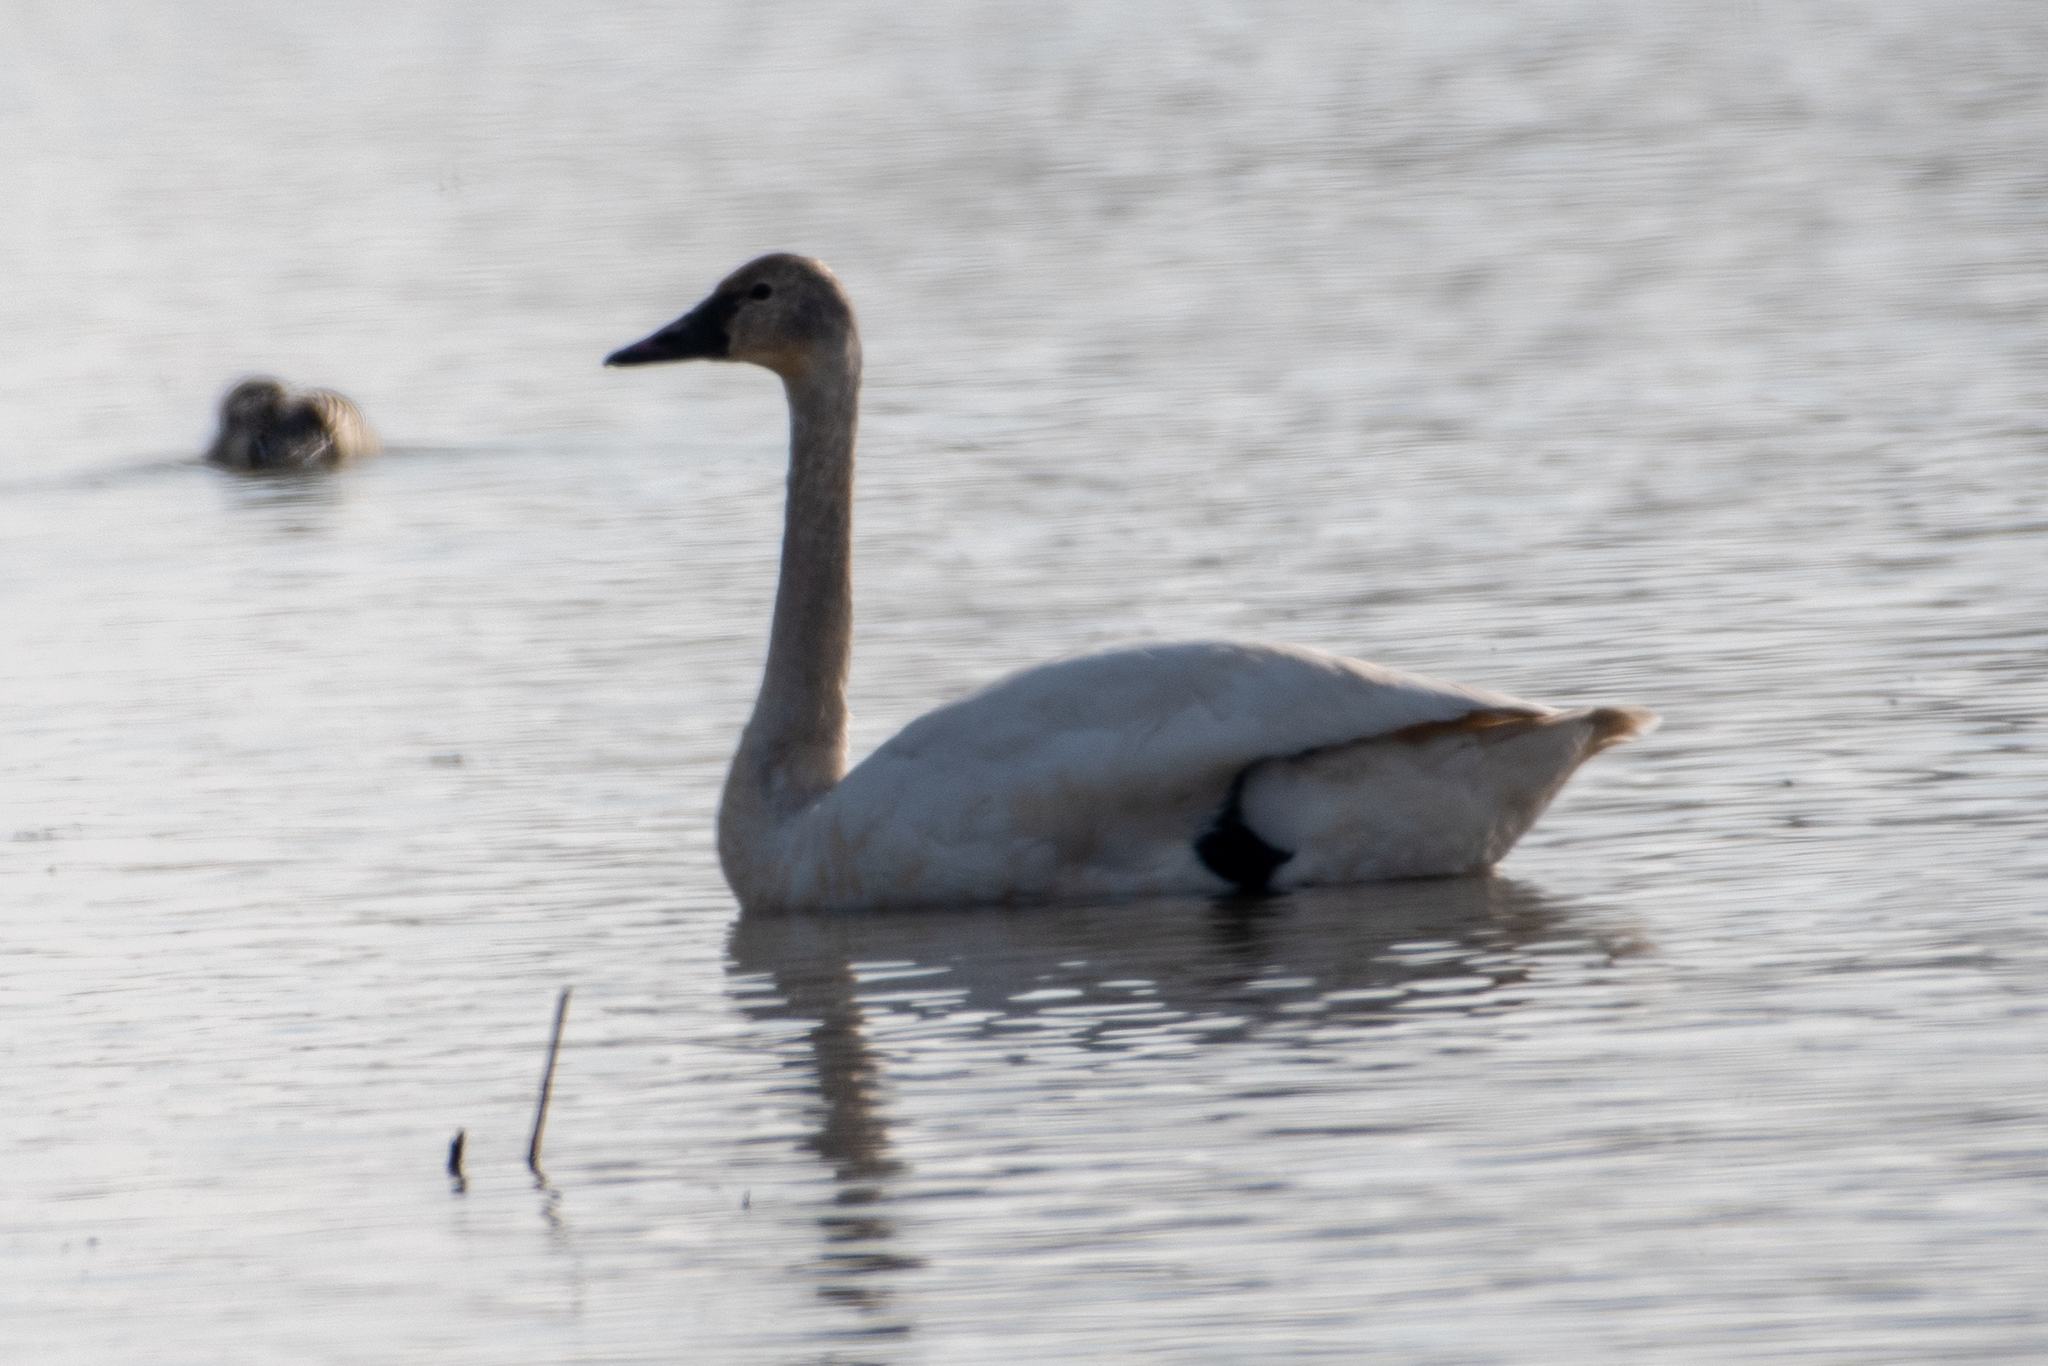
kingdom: Animalia
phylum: Chordata
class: Aves
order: Anseriformes
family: Anatidae
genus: Cygnus
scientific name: Cygnus columbianus
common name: Tundra swan
